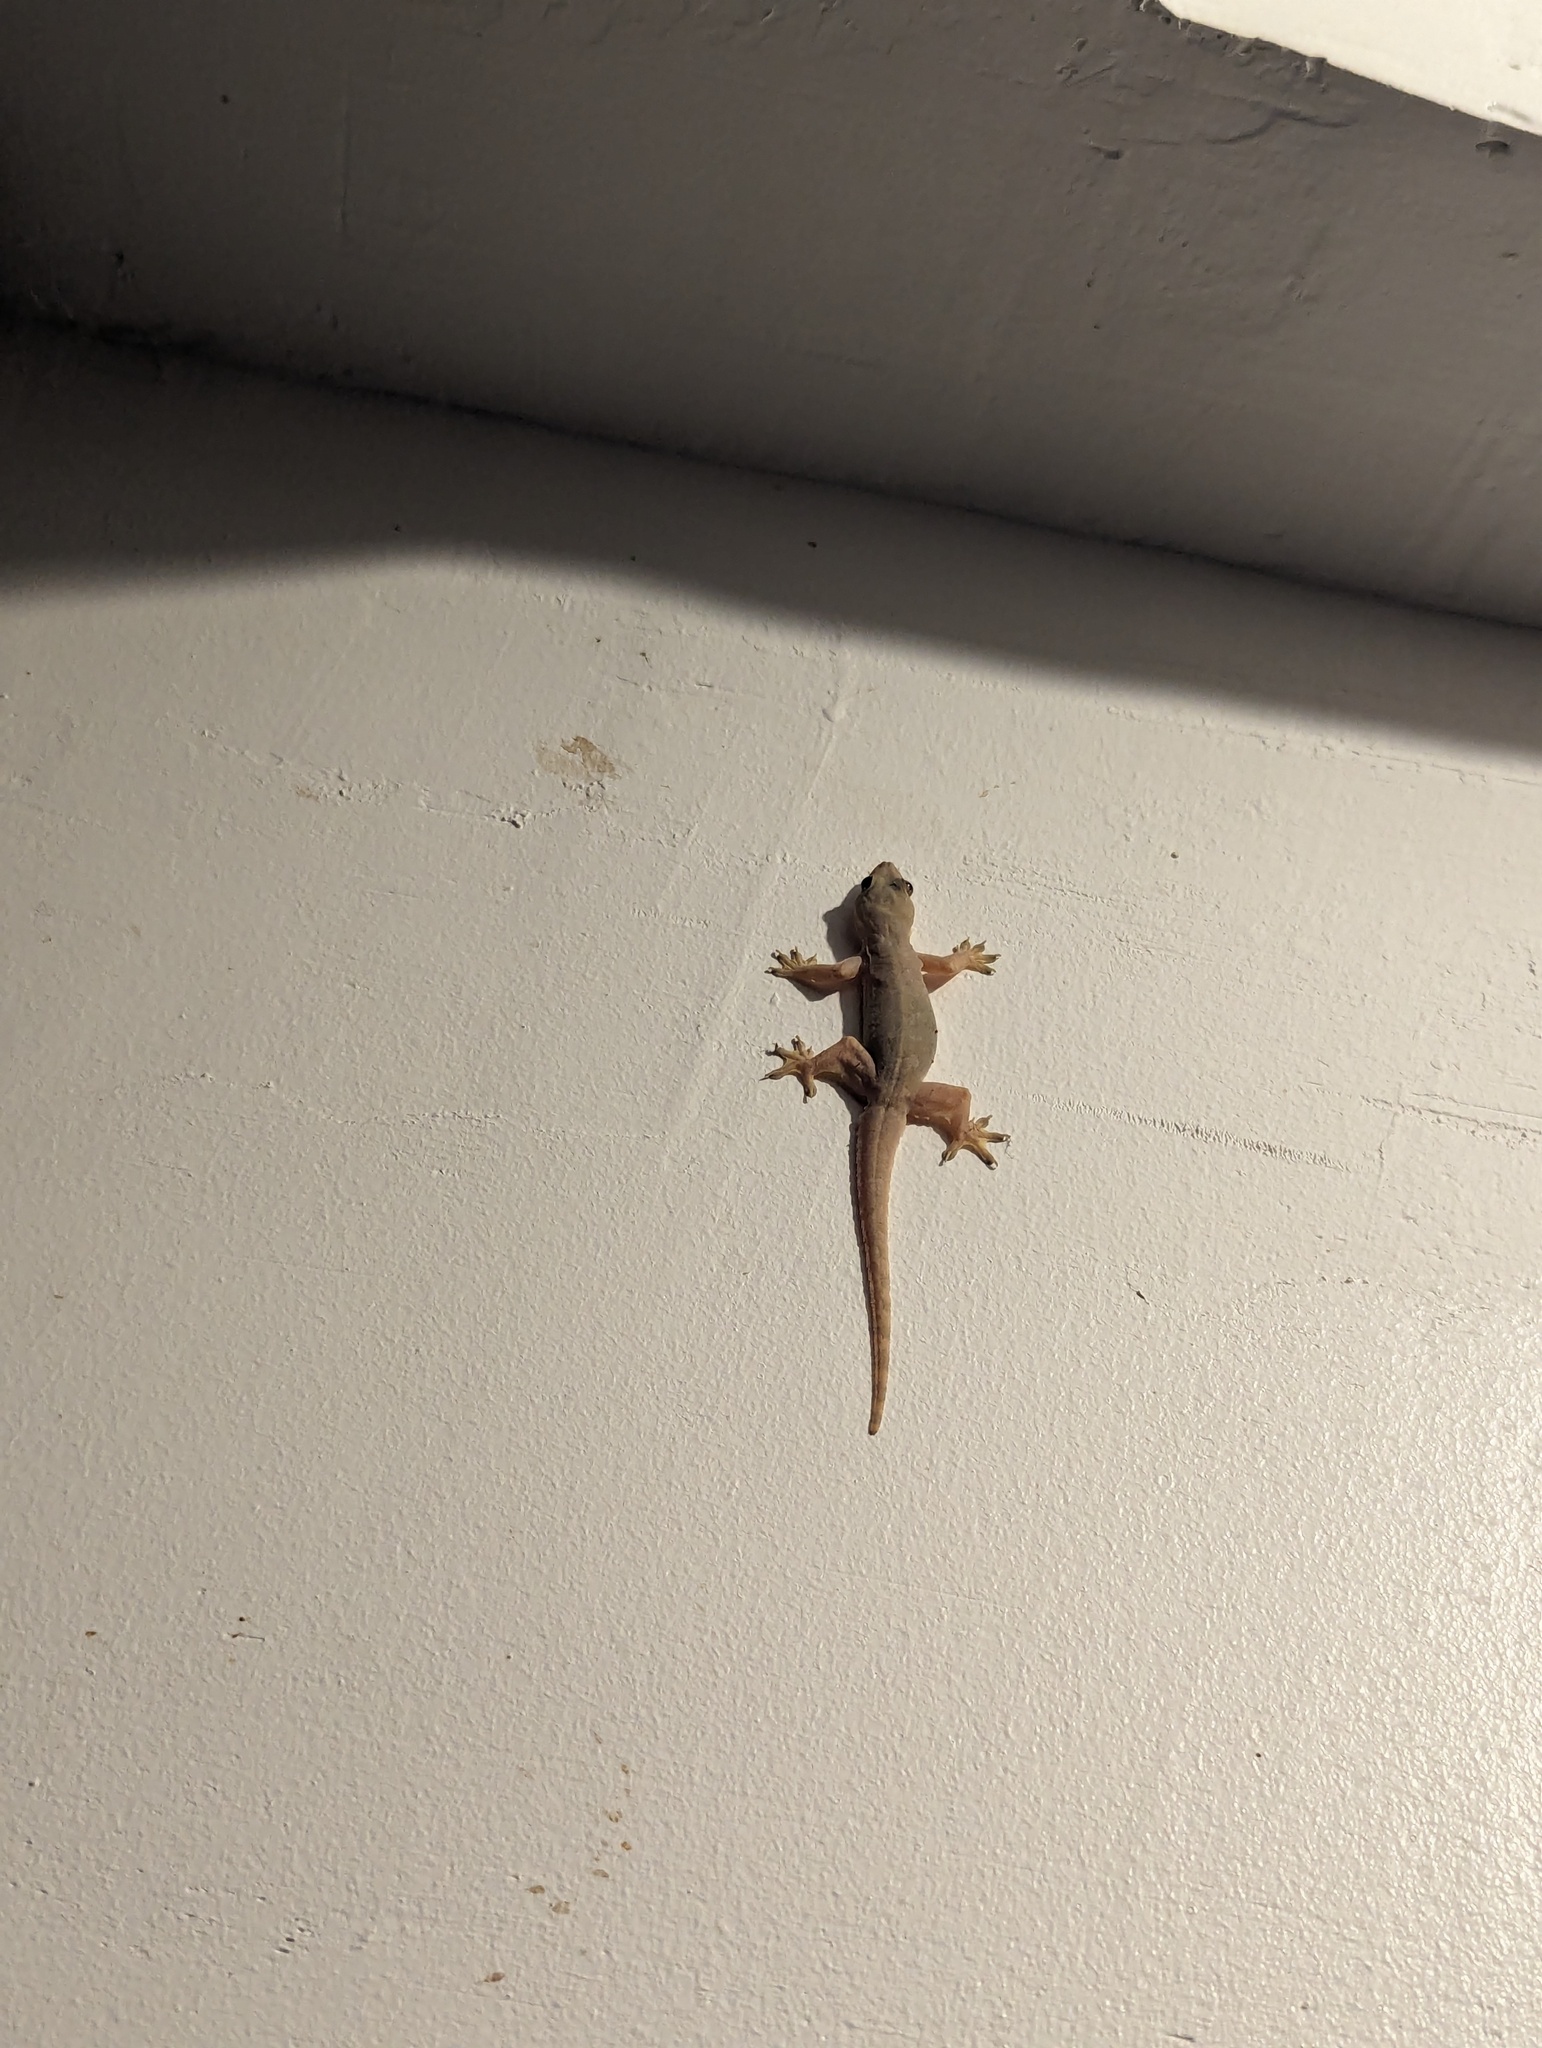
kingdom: Animalia
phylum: Chordata
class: Squamata
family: Gekkonidae
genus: Hemidactylus
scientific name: Hemidactylus platyurus
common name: Flat-tailed house gecko
